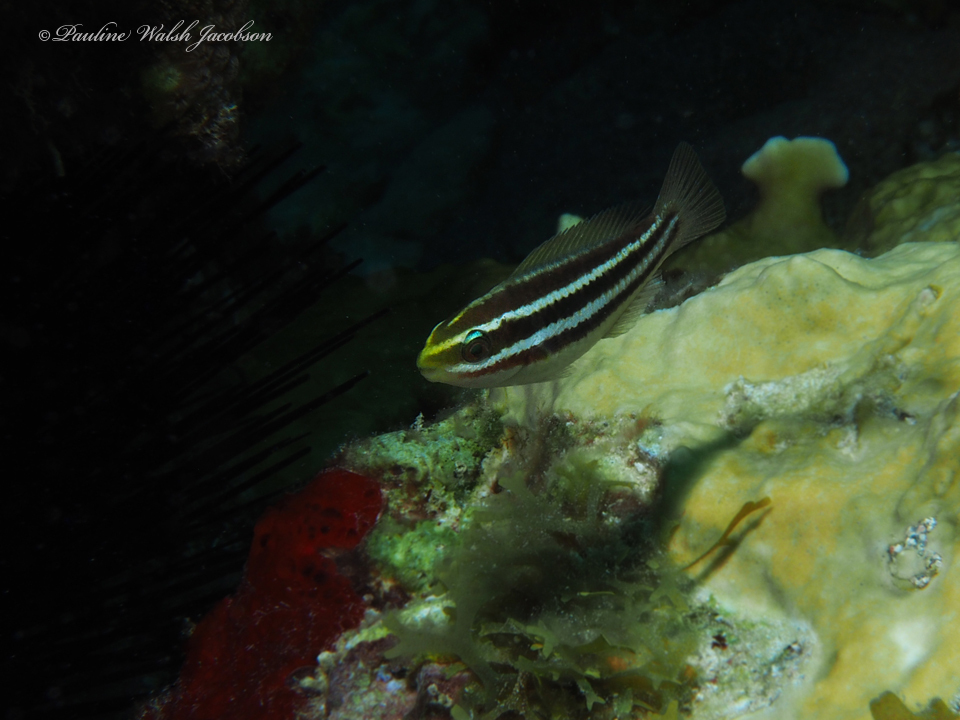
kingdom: Animalia
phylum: Chordata
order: Perciformes
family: Scaridae
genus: Scarus
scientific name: Scarus iseri
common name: Striped parrotfish
